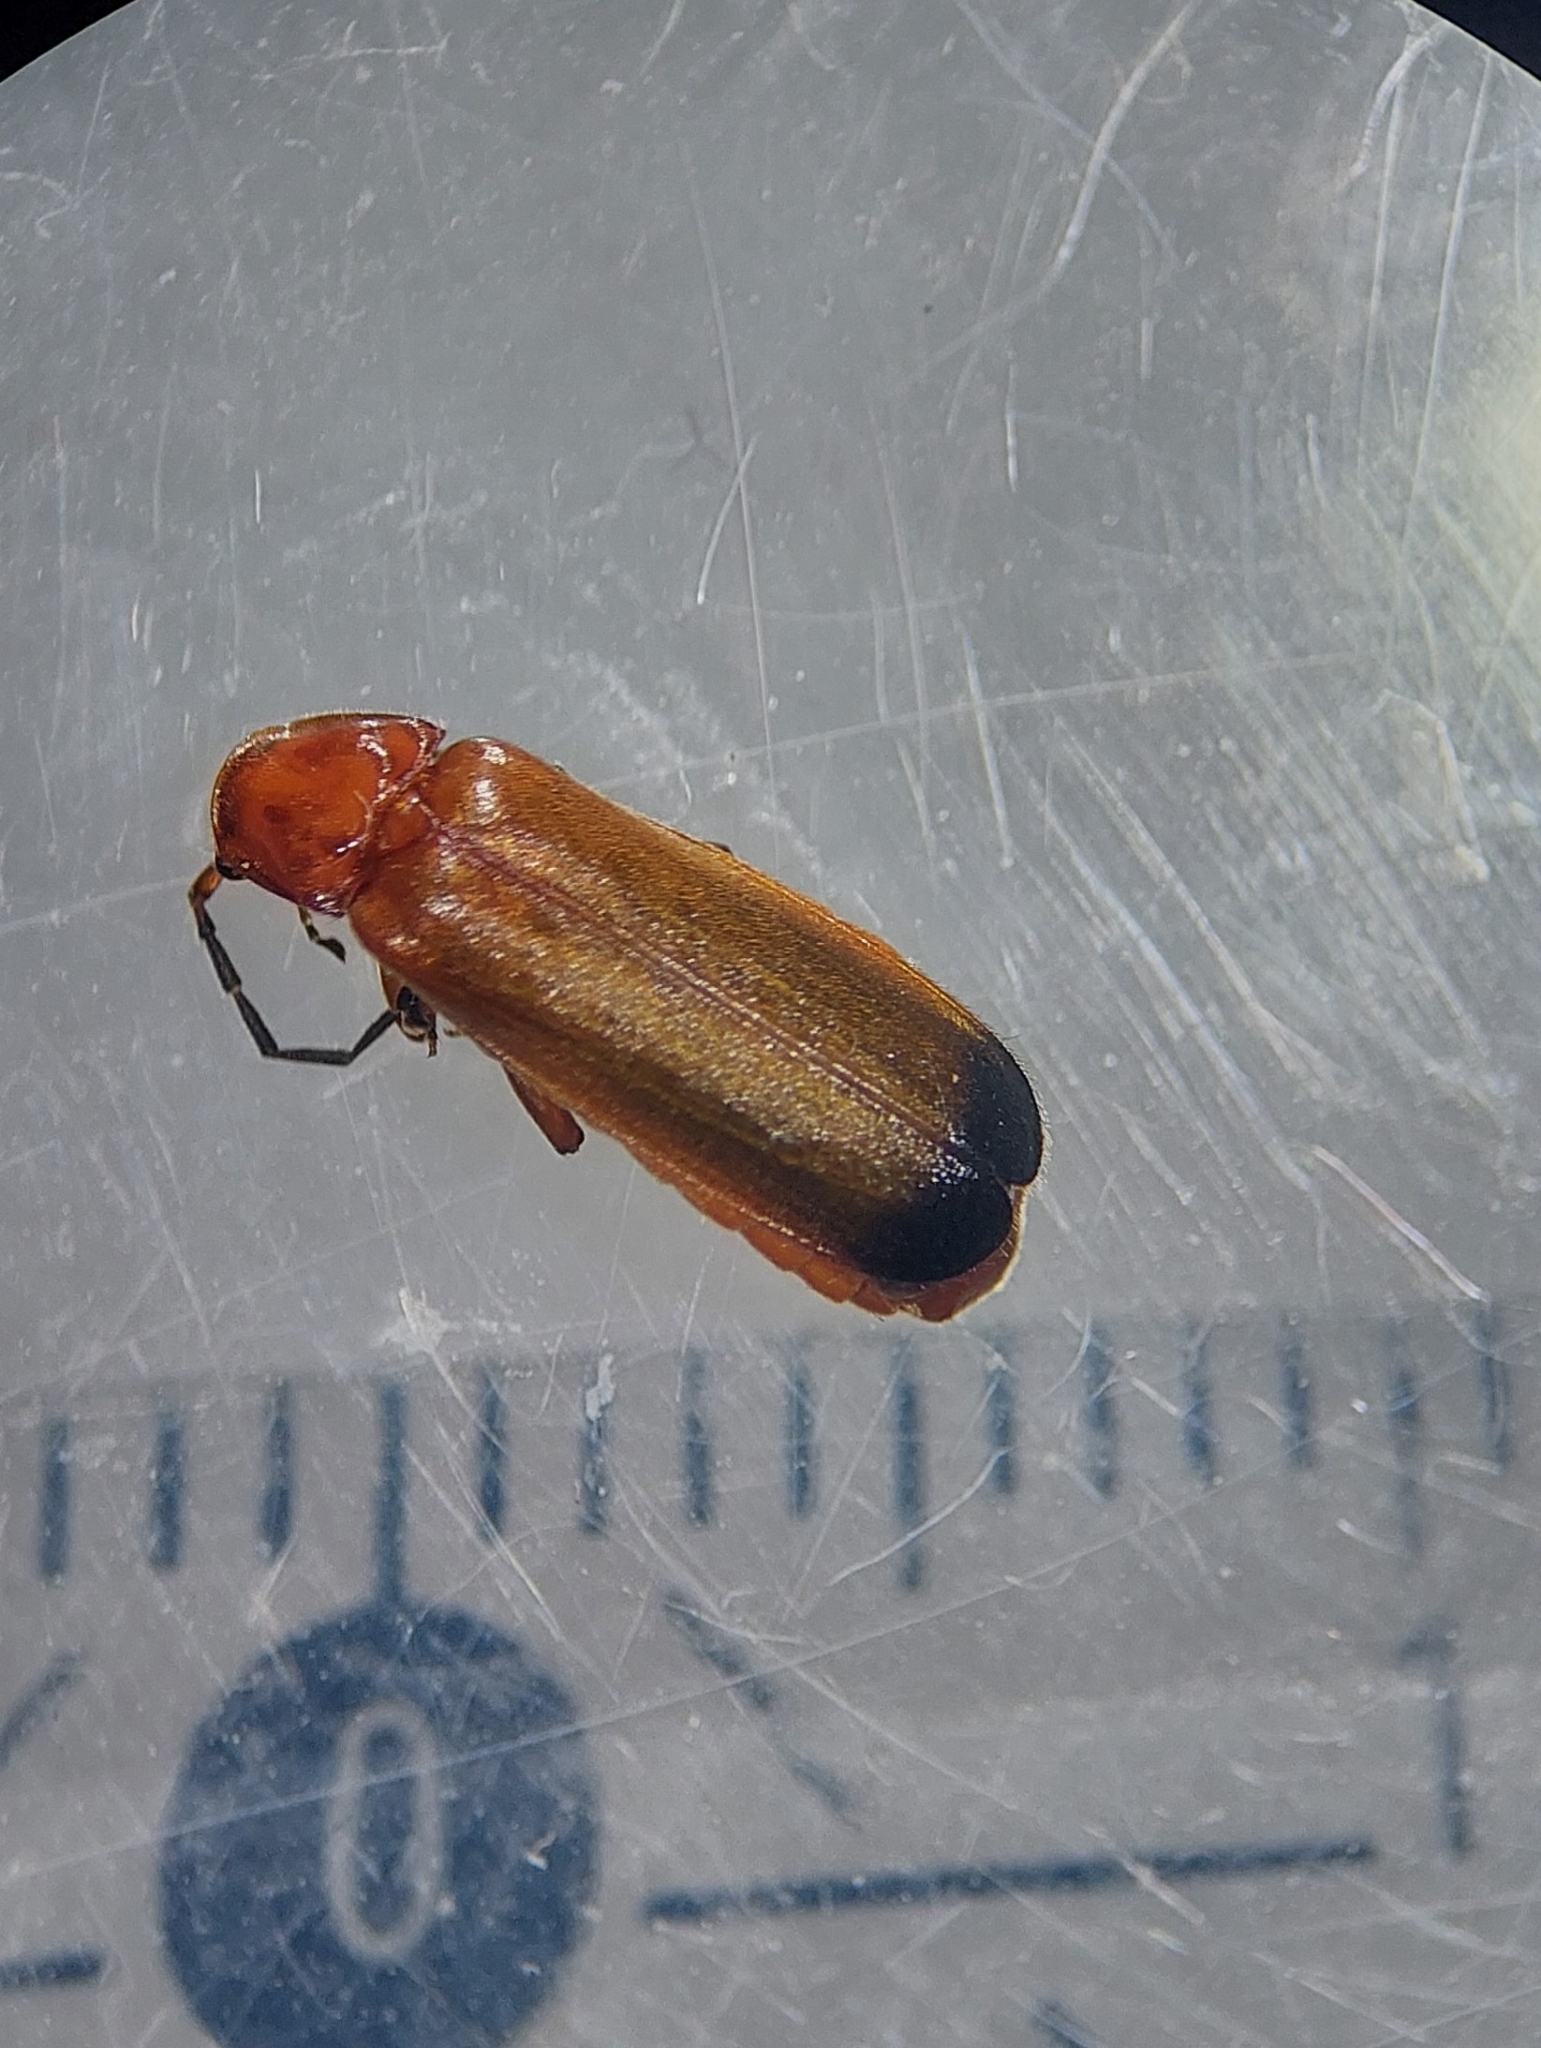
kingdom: Animalia
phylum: Arthropoda
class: Insecta
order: Coleoptera
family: Cantharidae
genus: Rhagonycha
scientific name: Rhagonycha fulva
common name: Common red soldier beetle
